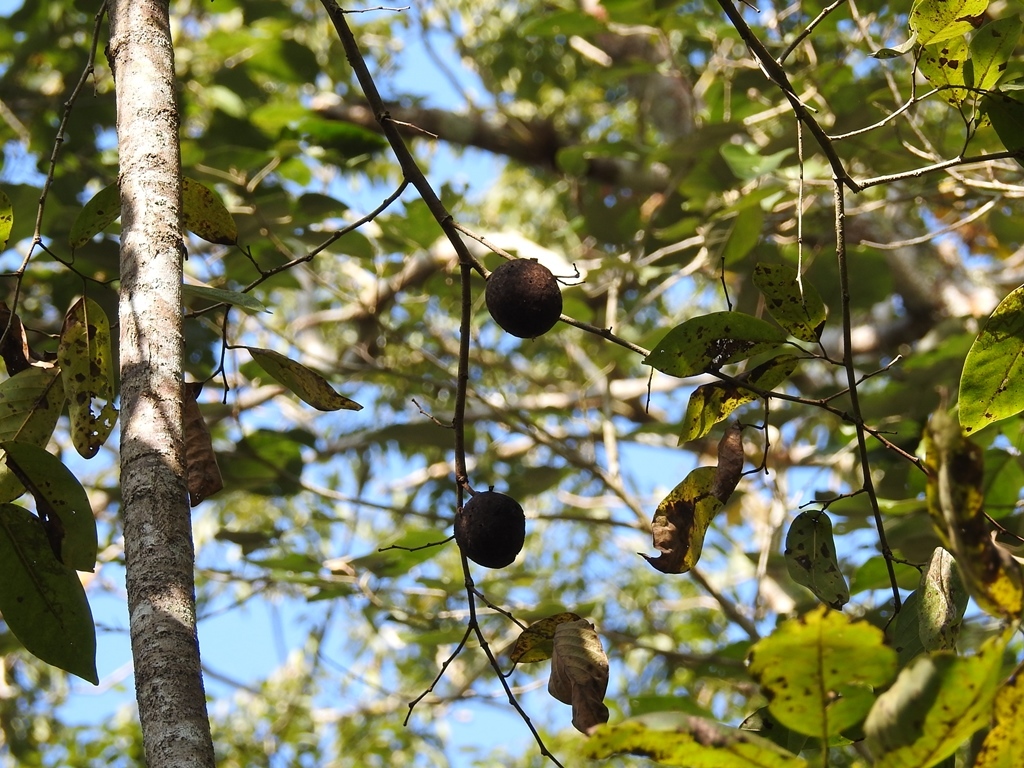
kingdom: Plantae
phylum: Tracheophyta
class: Magnoliopsida
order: Magnoliales
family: Annonaceae
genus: Annona
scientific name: Annona macroprophyllata
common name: Ilama
